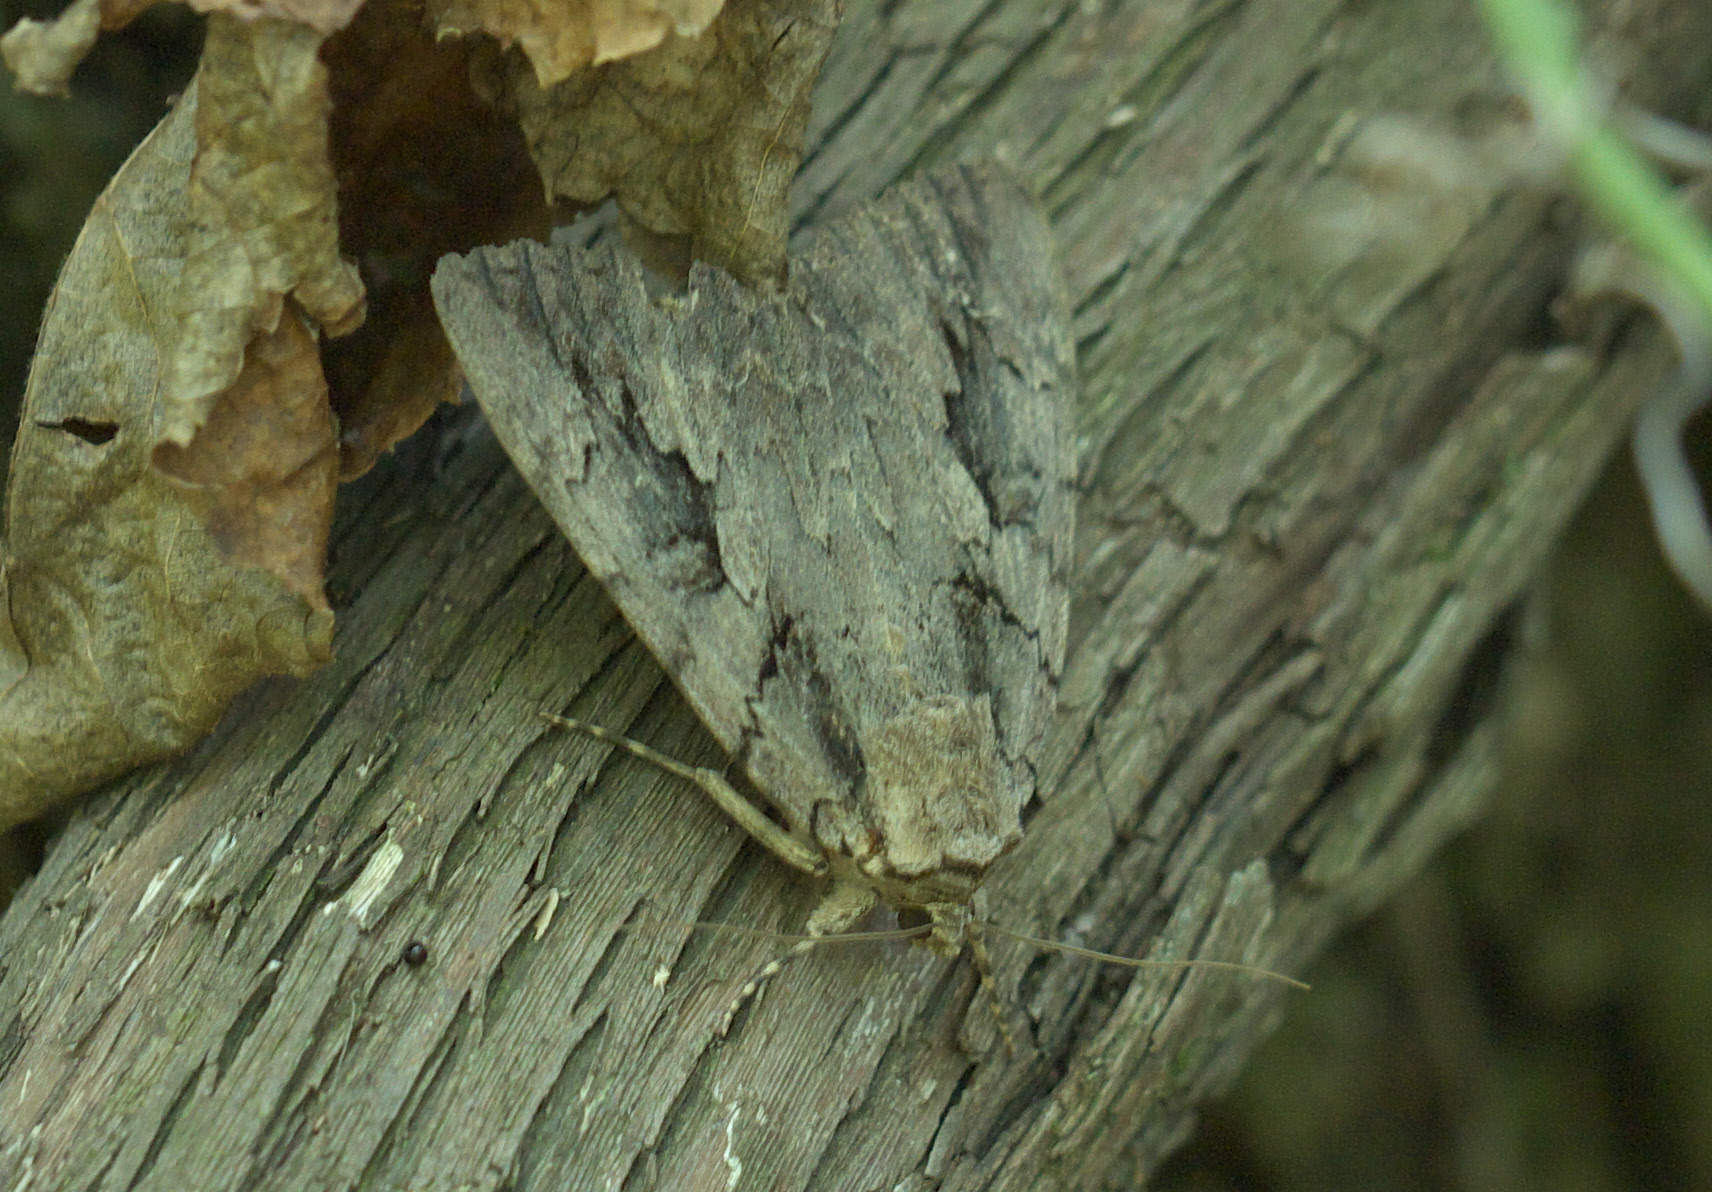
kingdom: Animalia
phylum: Arthropoda
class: Insecta
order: Lepidoptera
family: Erebidae
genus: Catocala
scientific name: Catocala amatrix
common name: Sweetheart underwing
